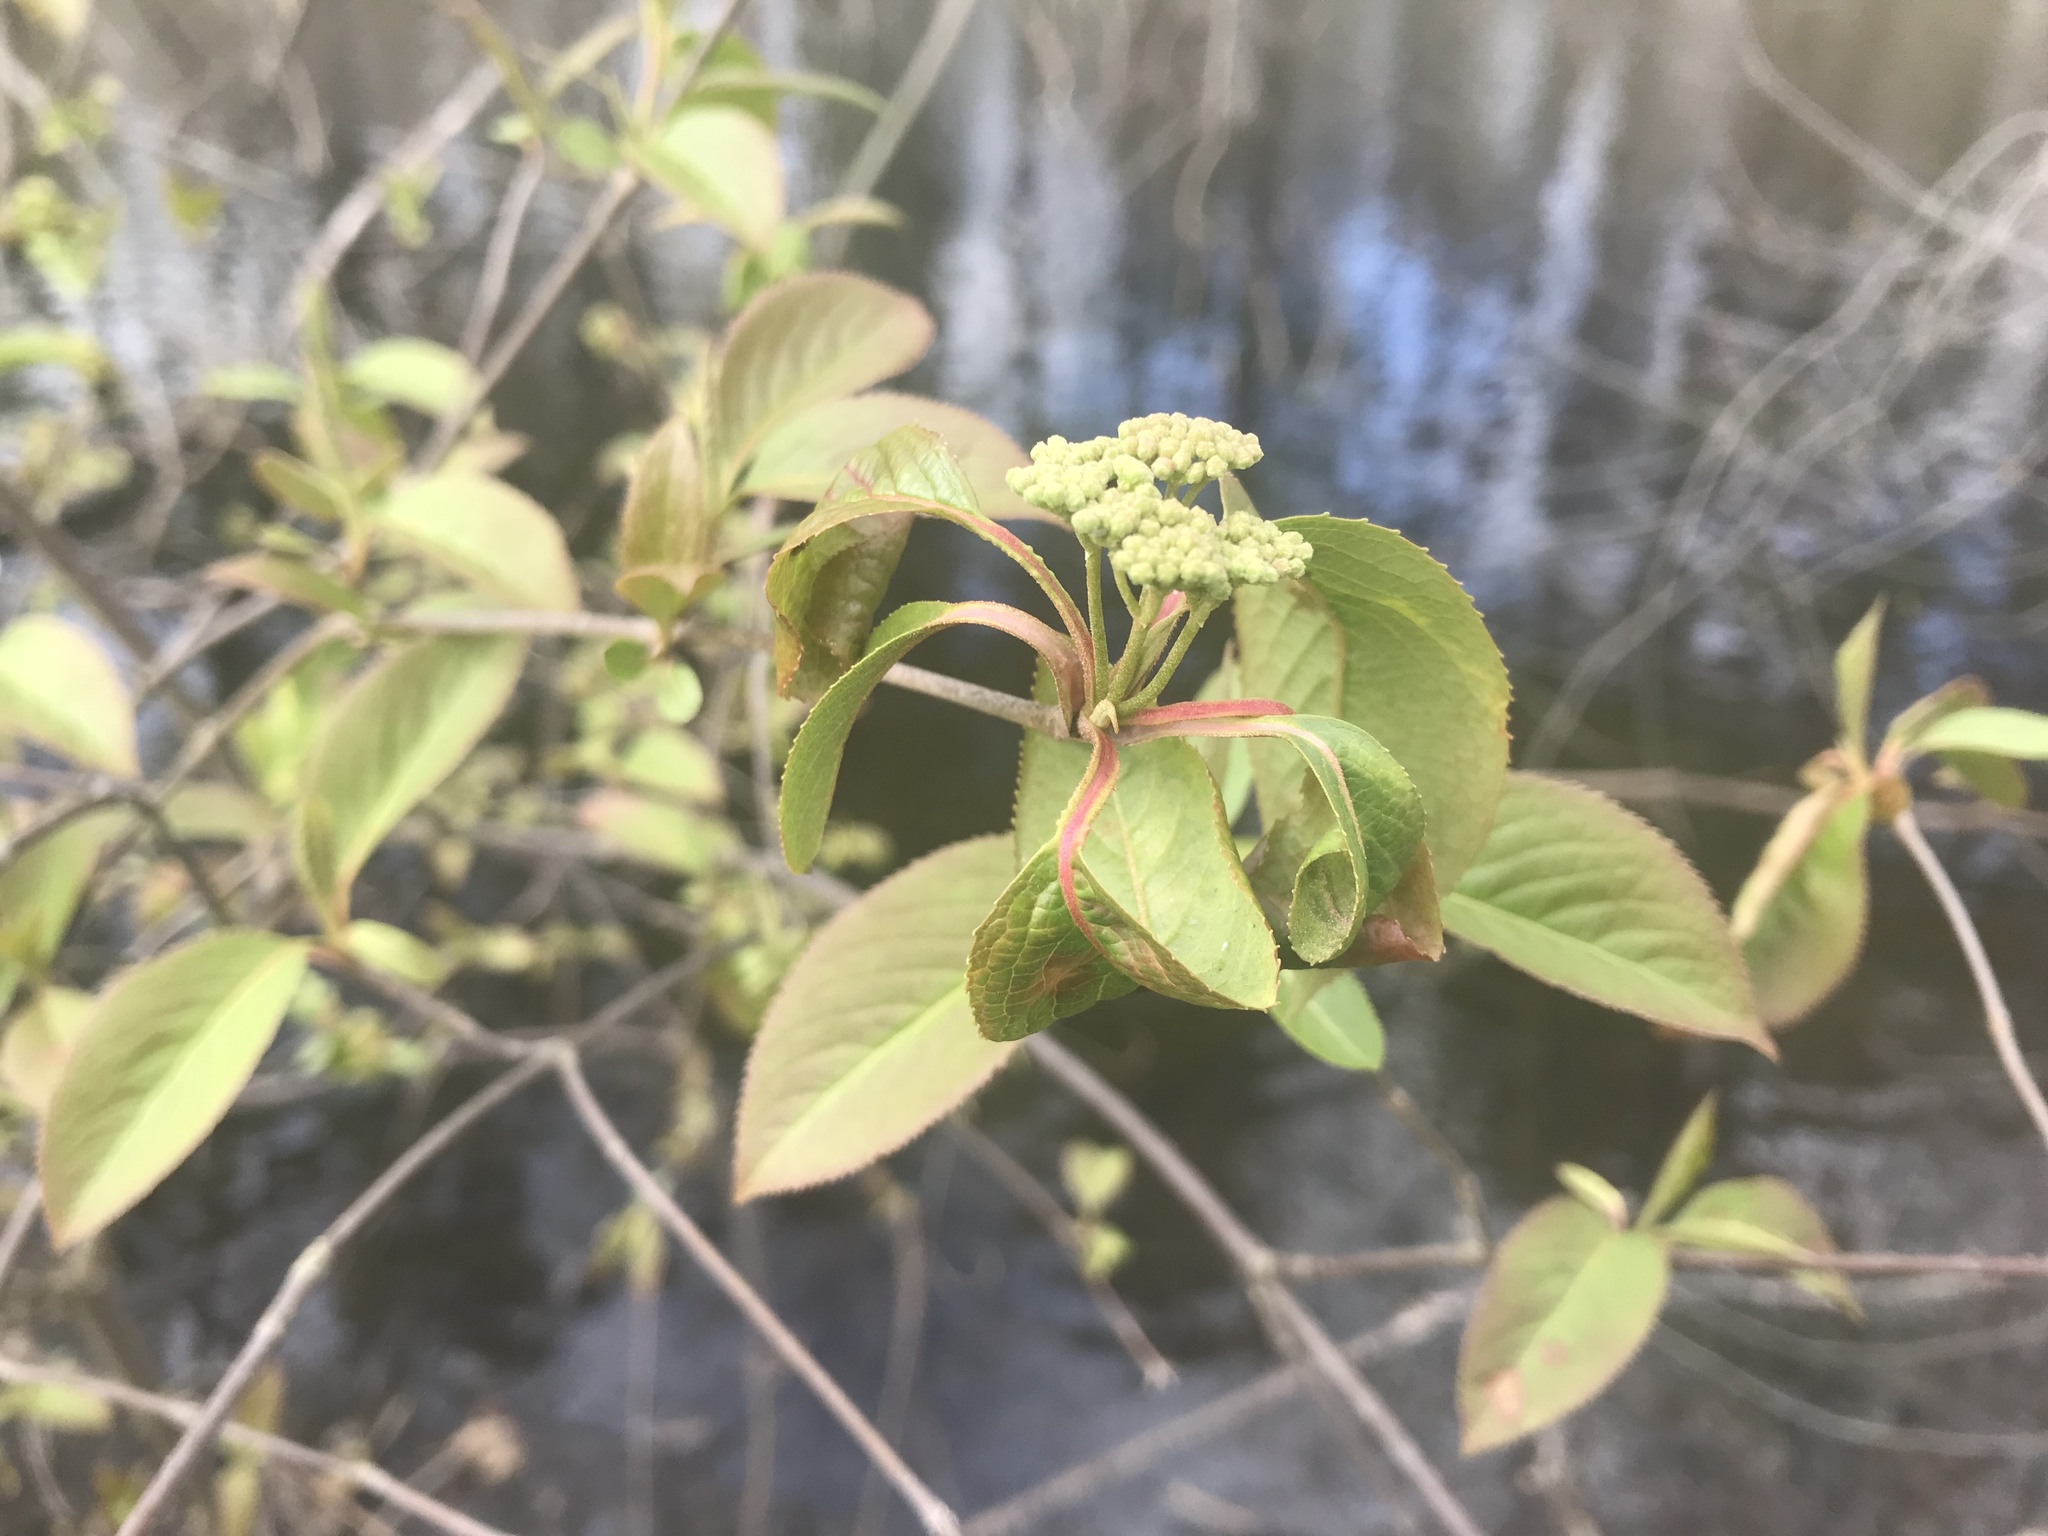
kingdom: Plantae
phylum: Tracheophyta
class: Magnoliopsida
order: Dipsacales
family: Viburnaceae
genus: Viburnum
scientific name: Viburnum lentago
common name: Black haw
